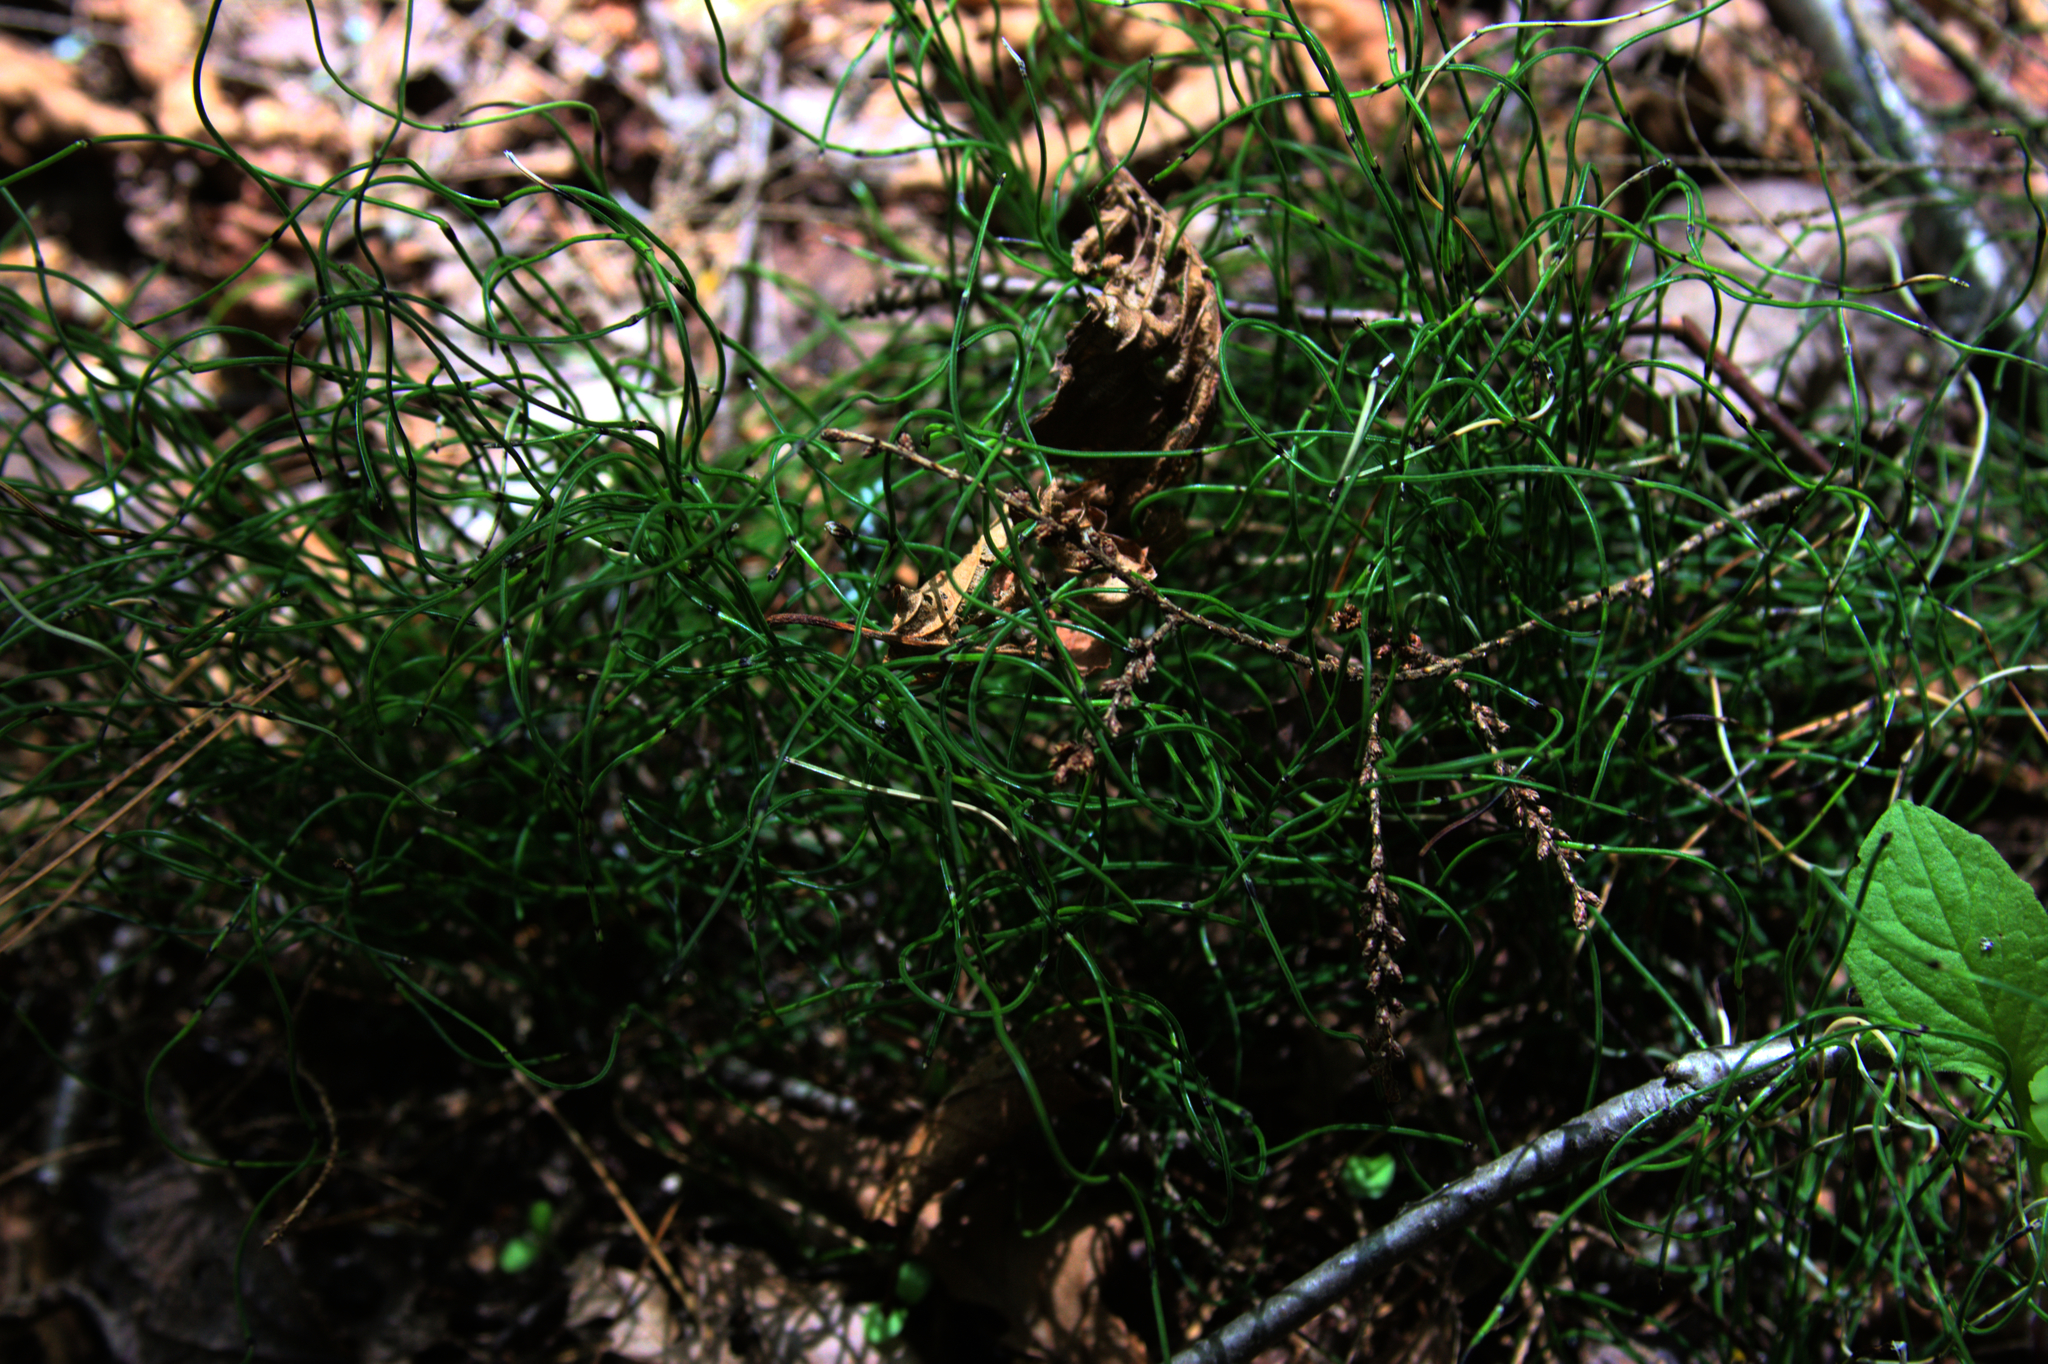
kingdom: Plantae
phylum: Tracheophyta
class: Polypodiopsida
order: Equisetales
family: Equisetaceae
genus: Equisetum
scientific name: Equisetum scirpoides
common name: Delicate horsetail
